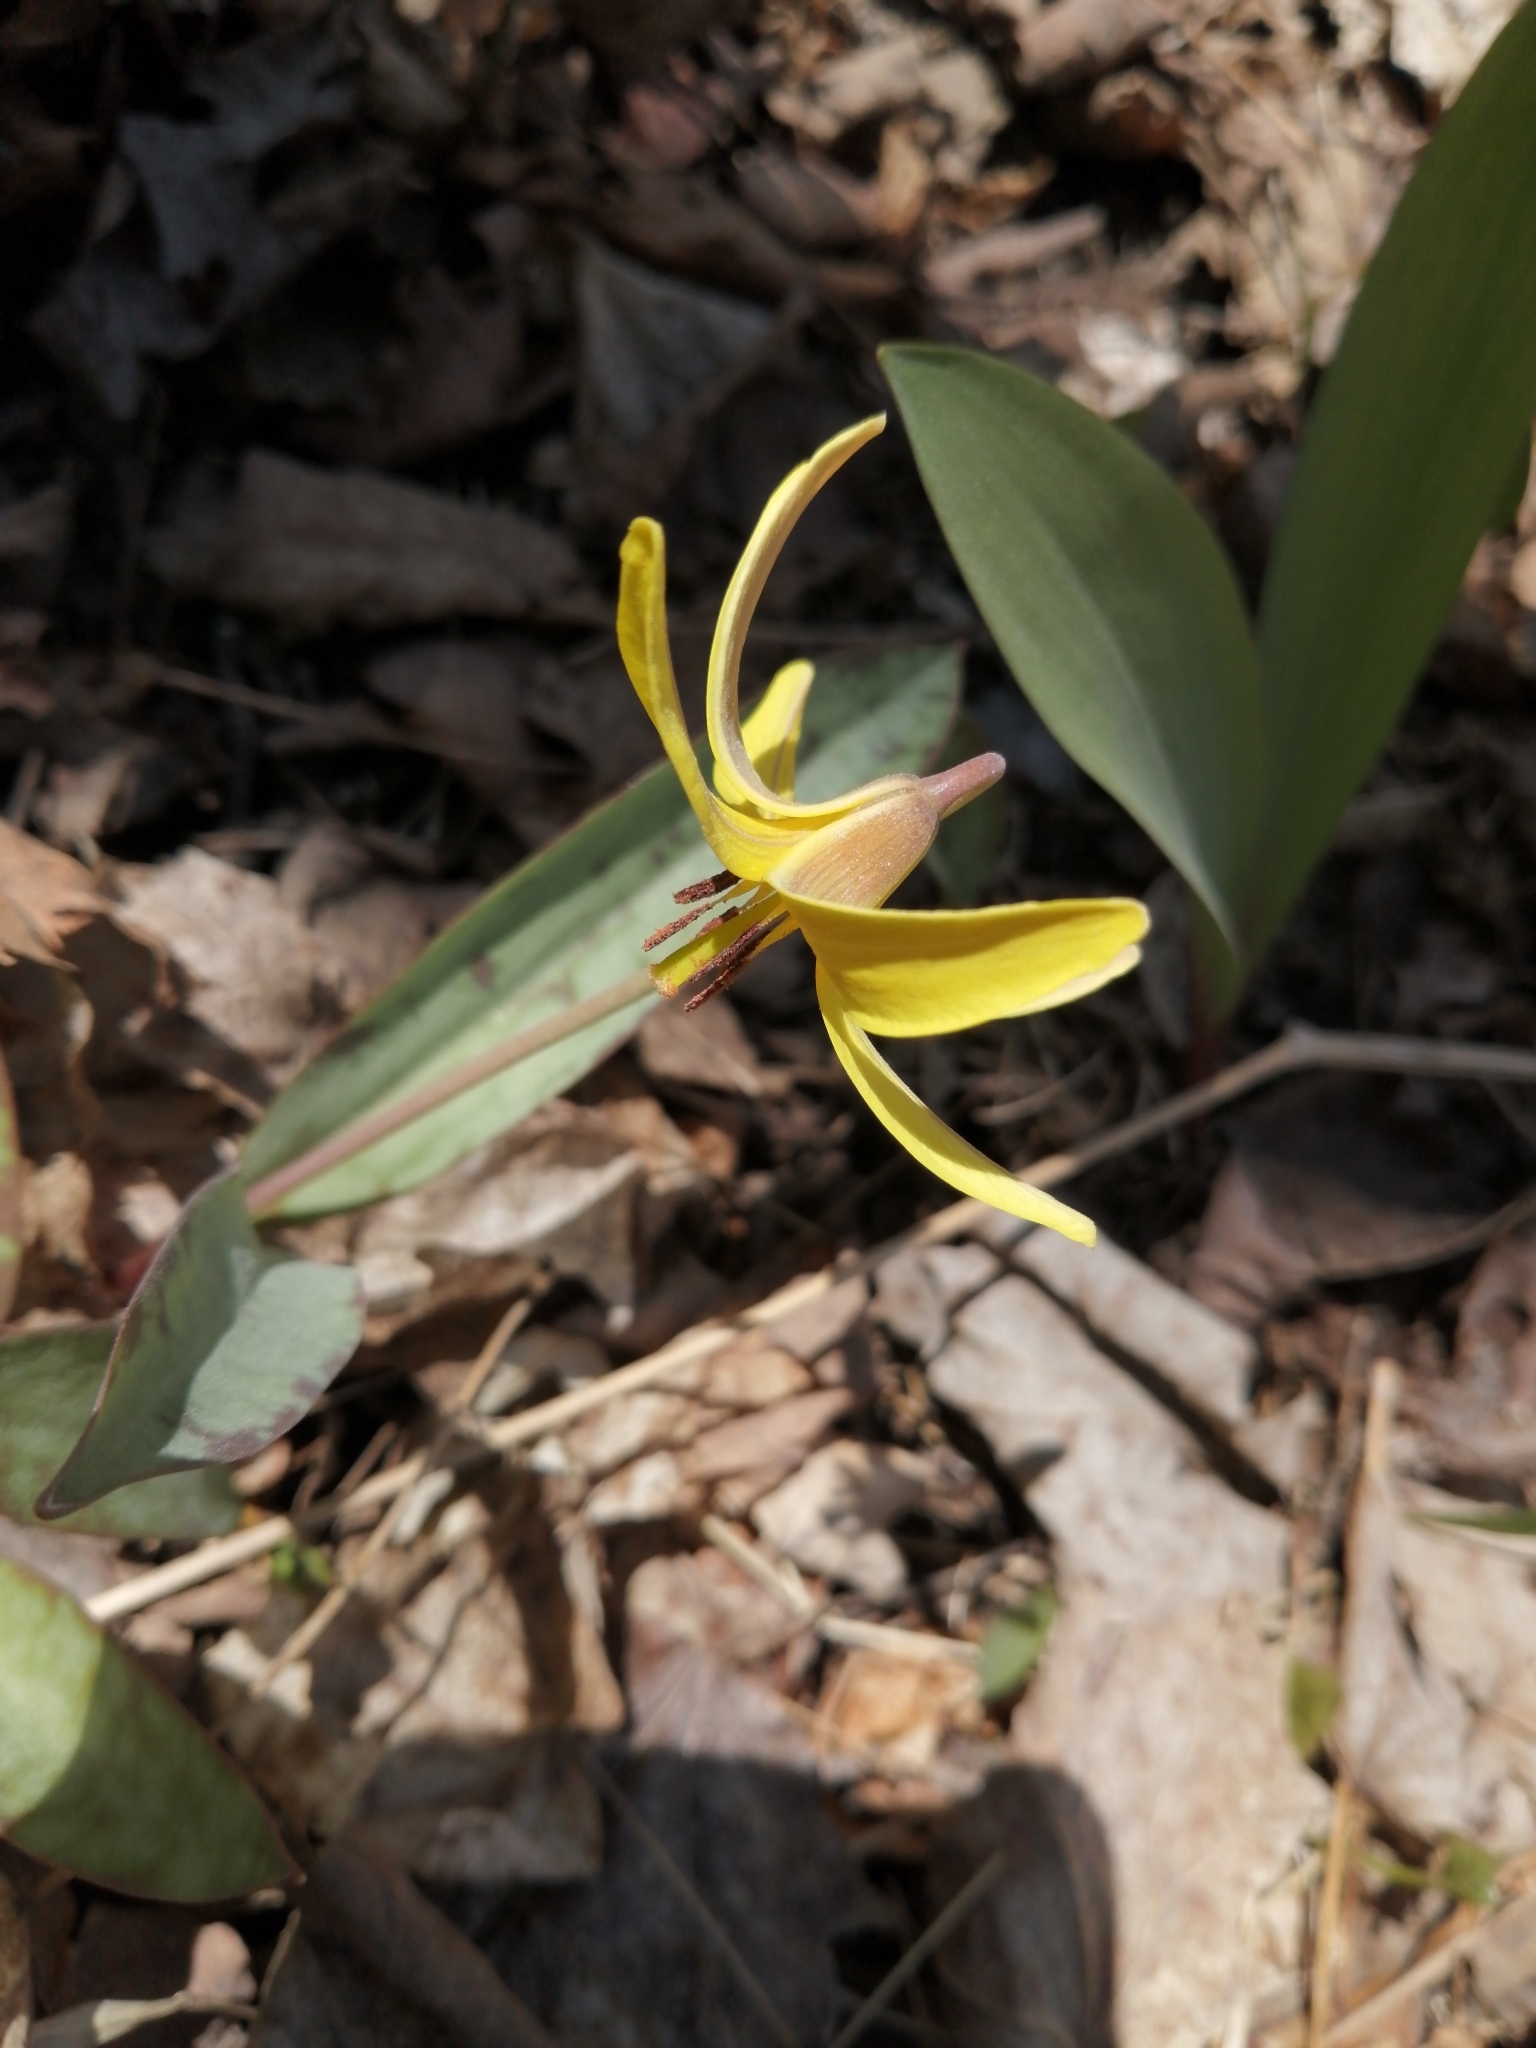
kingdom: Plantae
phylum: Tracheophyta
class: Liliopsida
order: Liliales
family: Liliaceae
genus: Erythronium
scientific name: Erythronium americanum
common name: Yellow adder's-tongue
